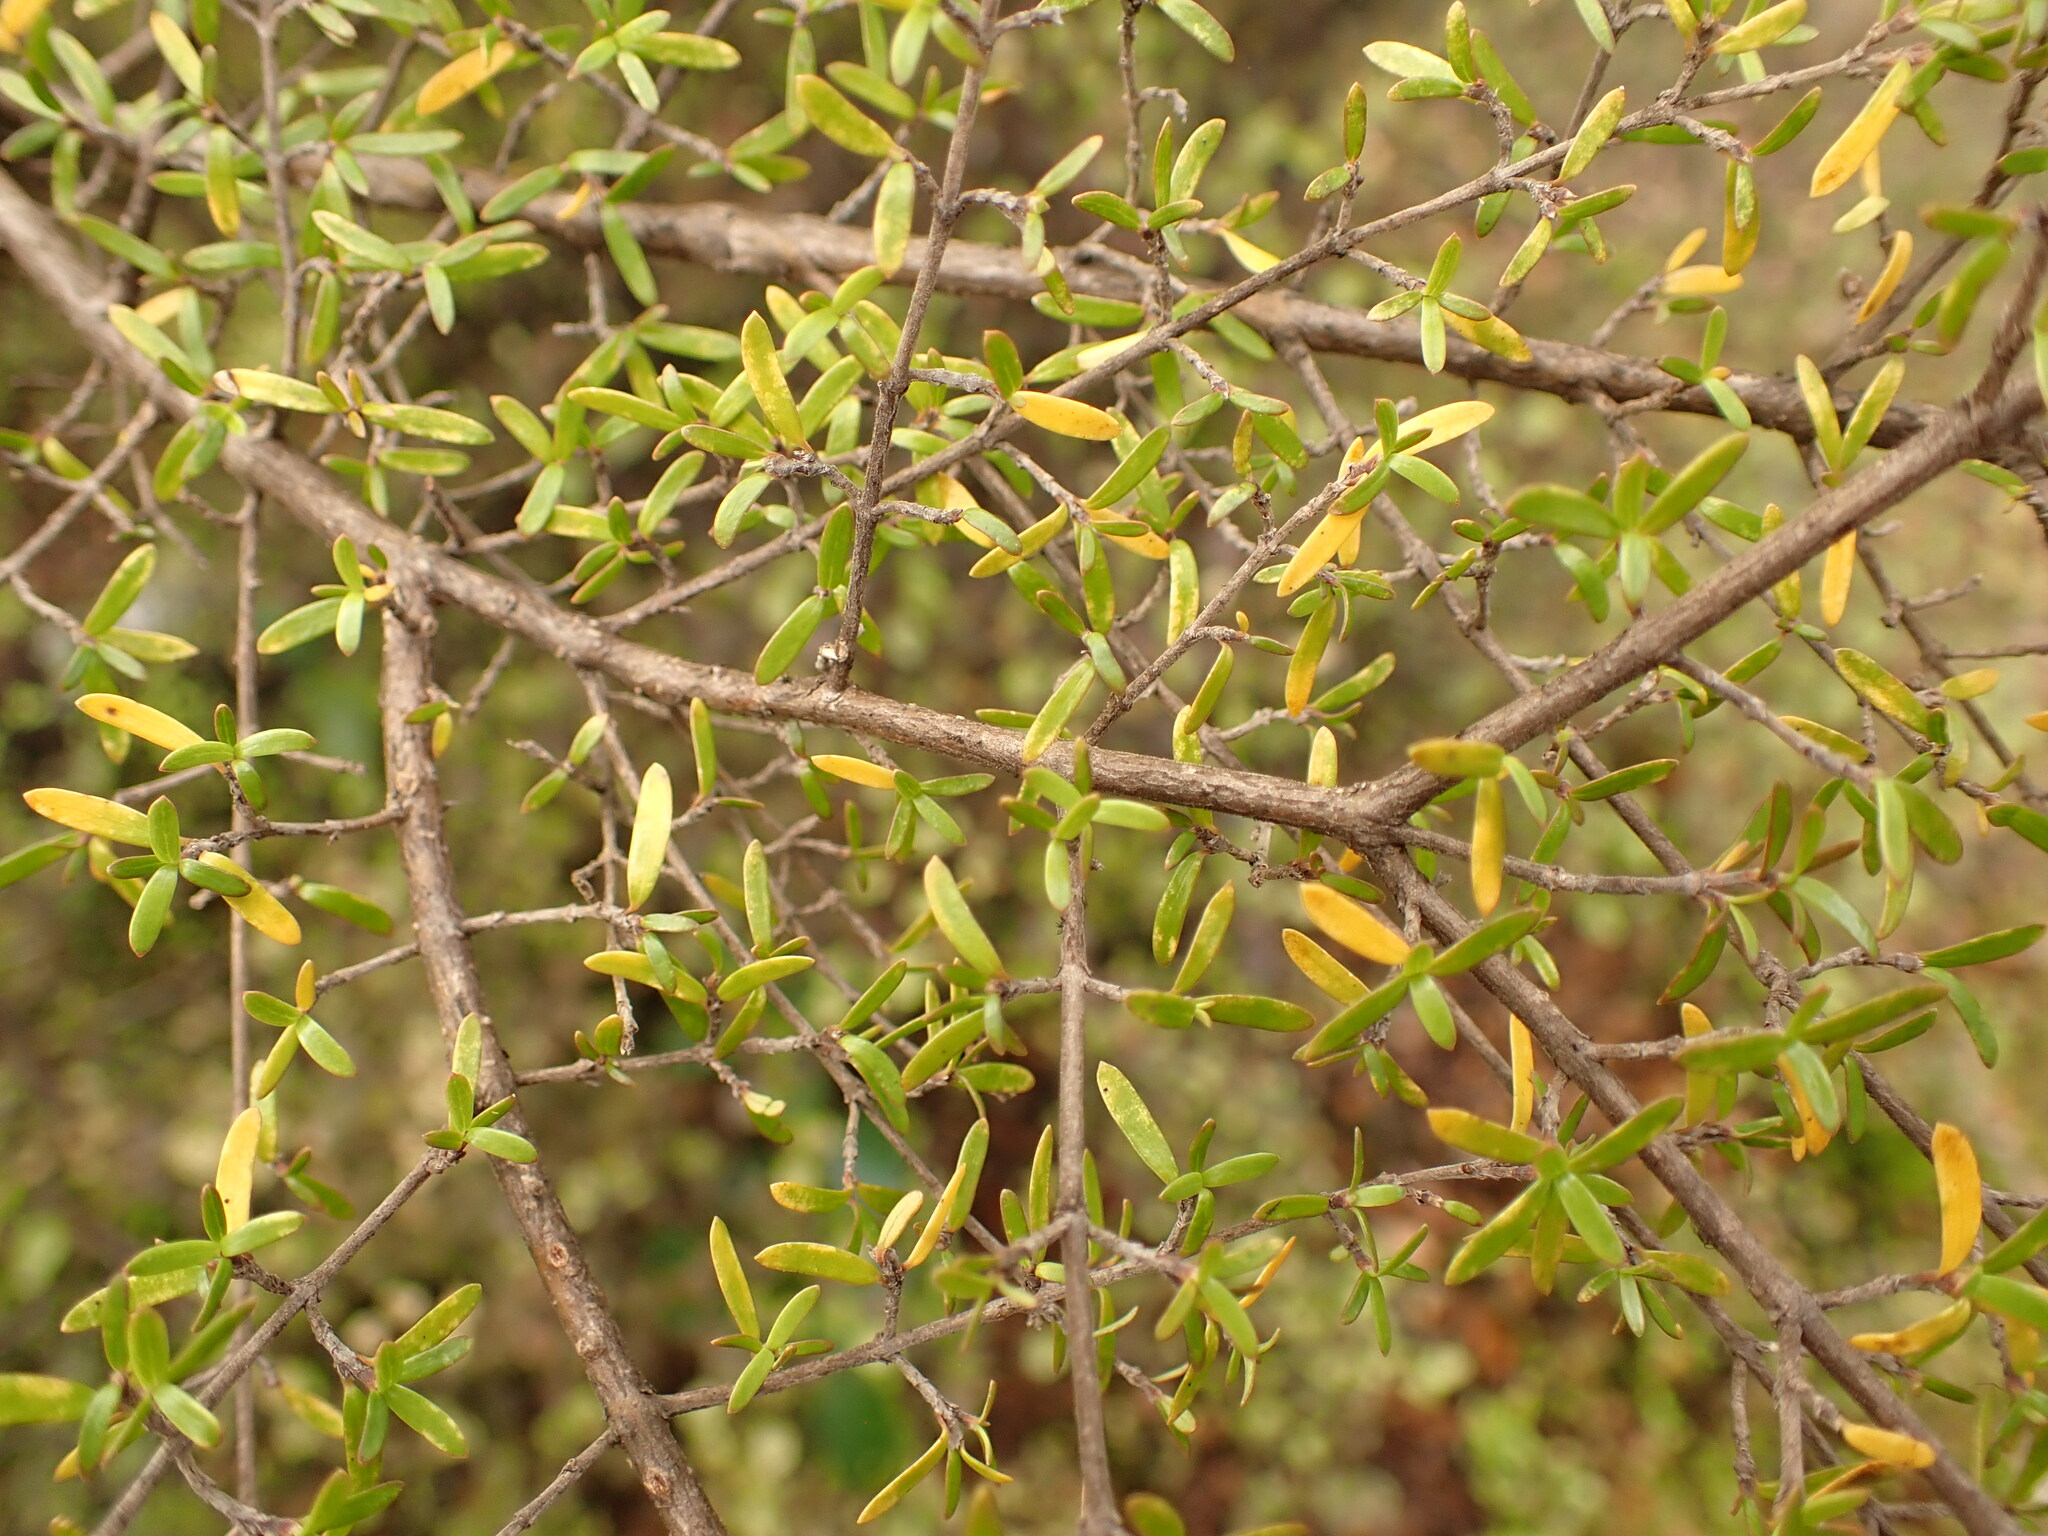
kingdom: Plantae
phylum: Tracheophyta
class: Magnoliopsida
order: Gentianales
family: Rubiaceae
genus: Coprosma
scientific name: Coprosma microcarpa
